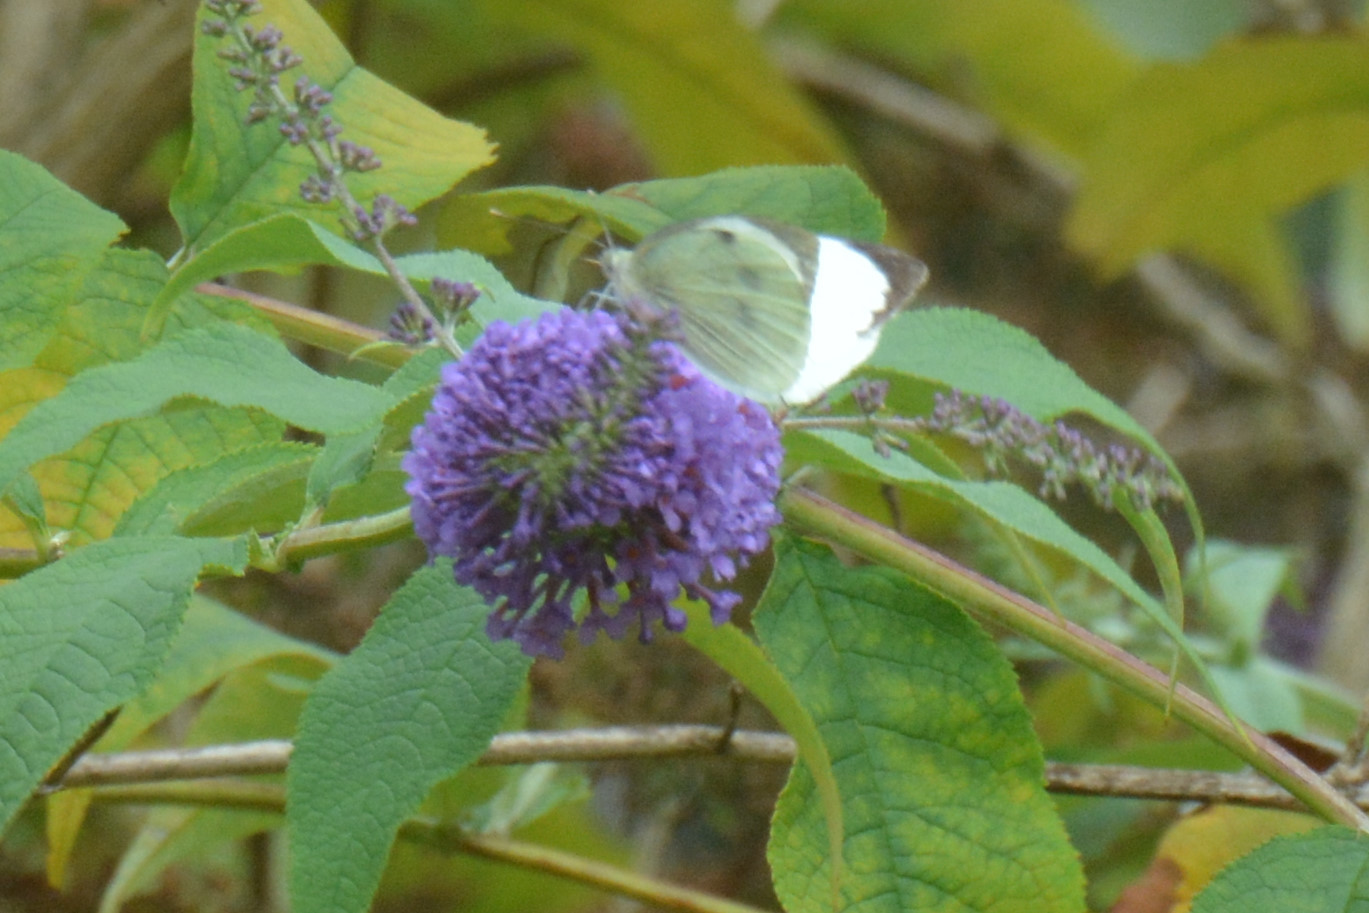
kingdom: Animalia
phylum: Arthropoda
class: Insecta
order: Lepidoptera
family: Pieridae
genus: Pieris
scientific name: Pieris brassicae
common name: Large white
